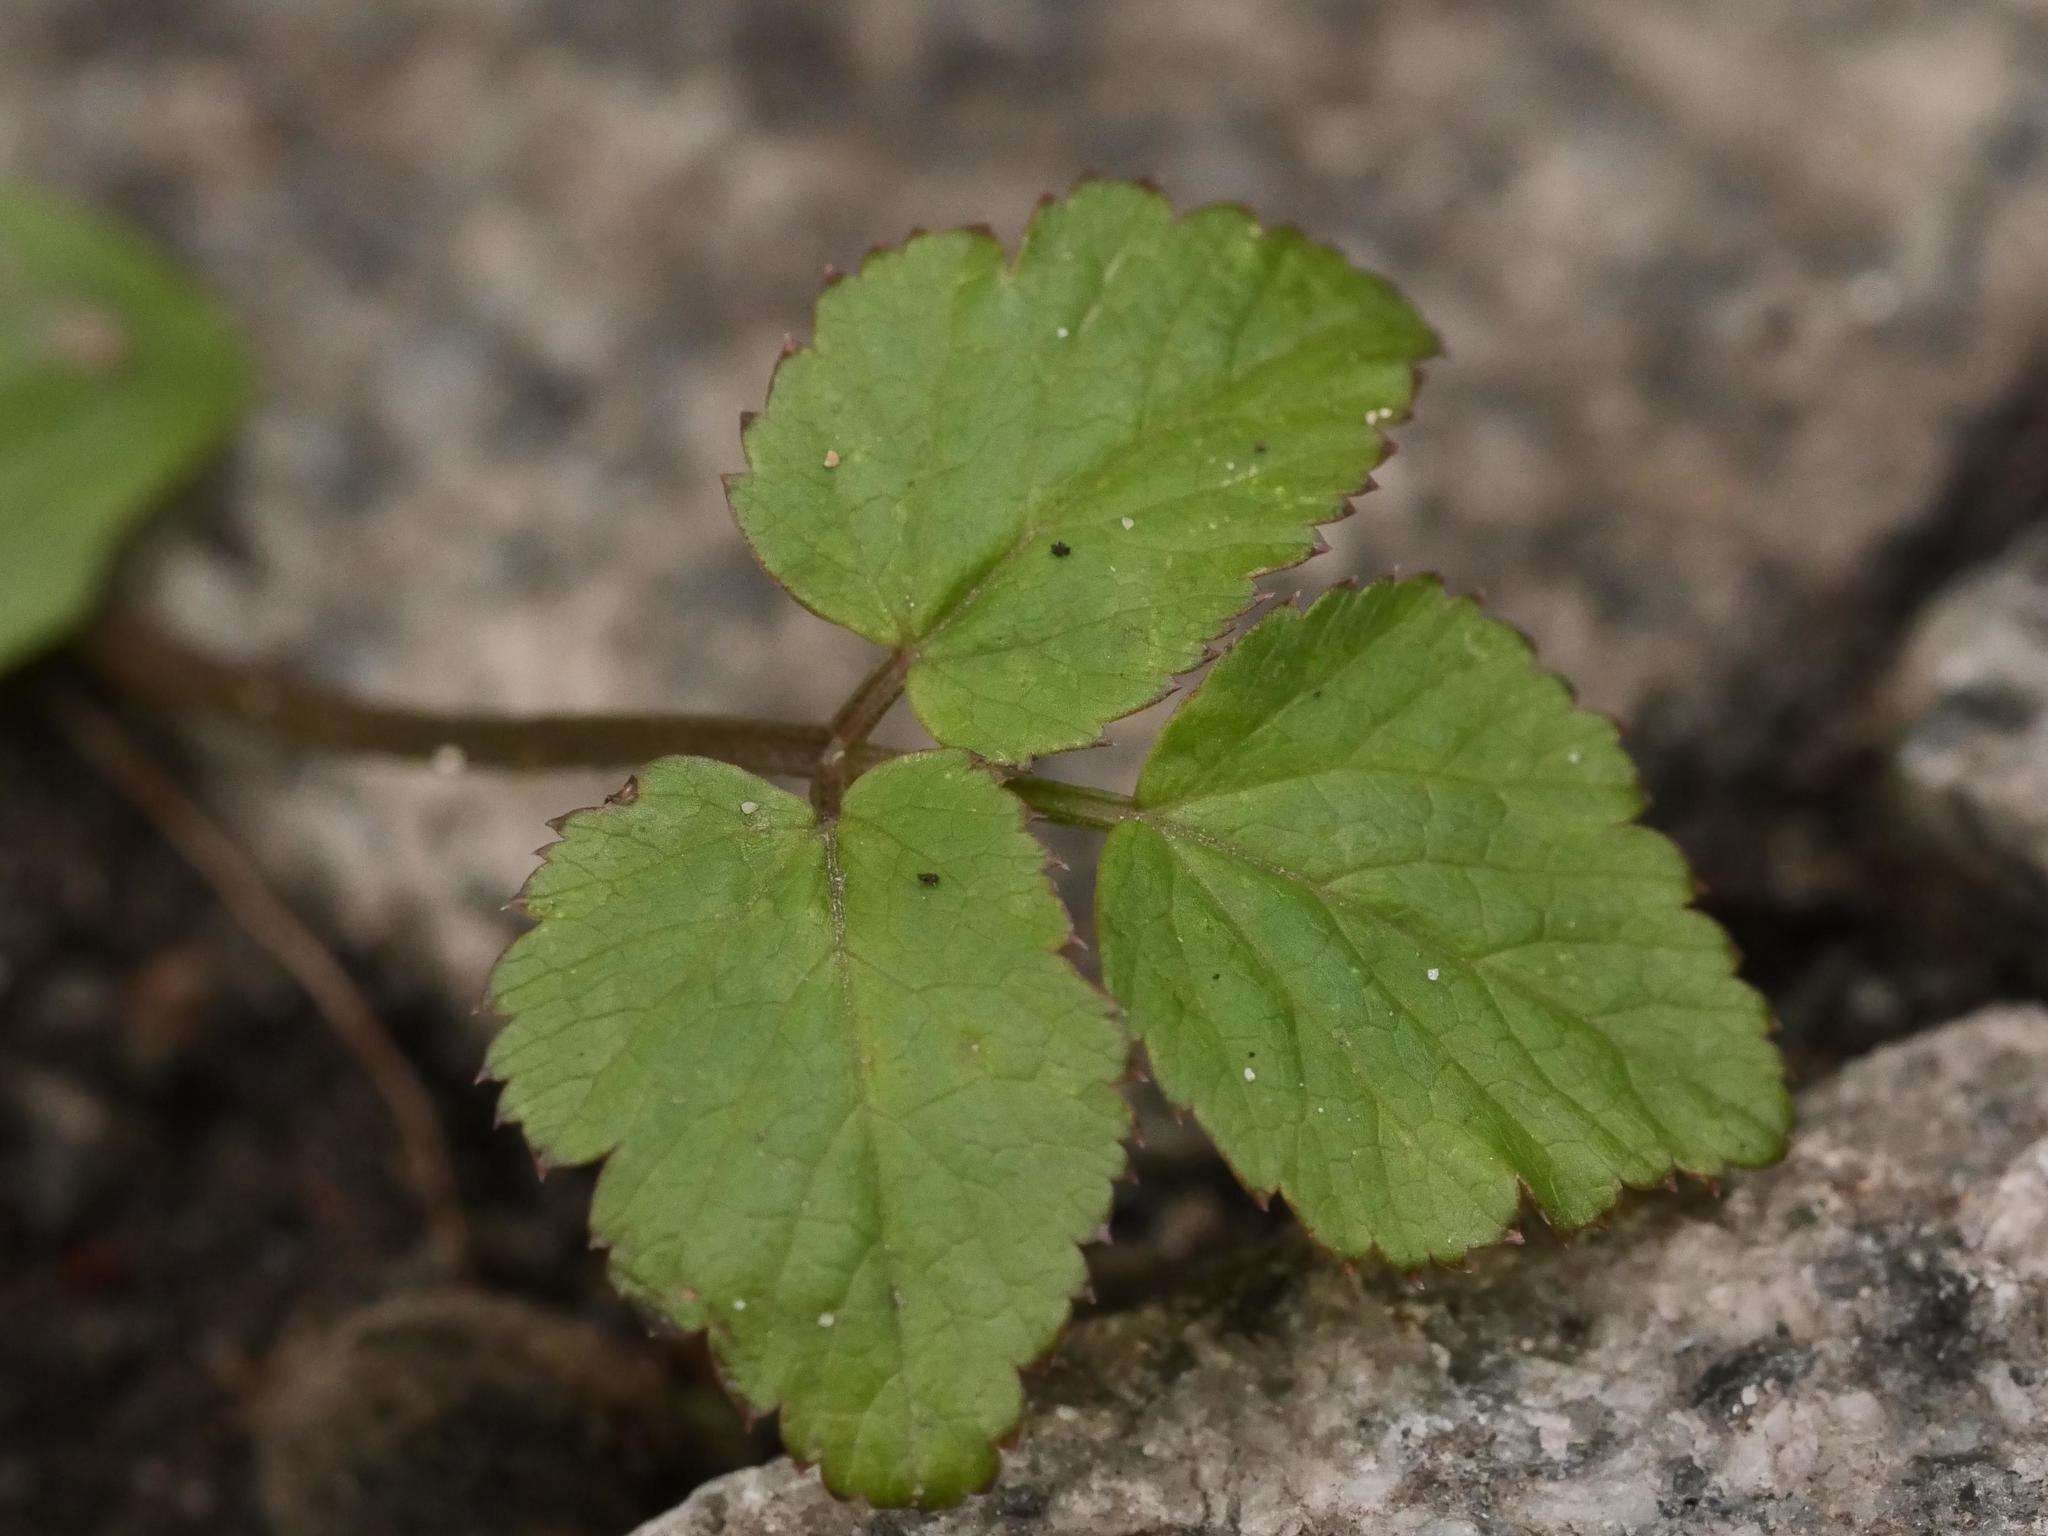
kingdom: Plantae
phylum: Tracheophyta
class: Magnoliopsida
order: Apiales
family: Apiaceae
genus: Aegopodium
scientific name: Aegopodium podagraria
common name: Ground-elder
